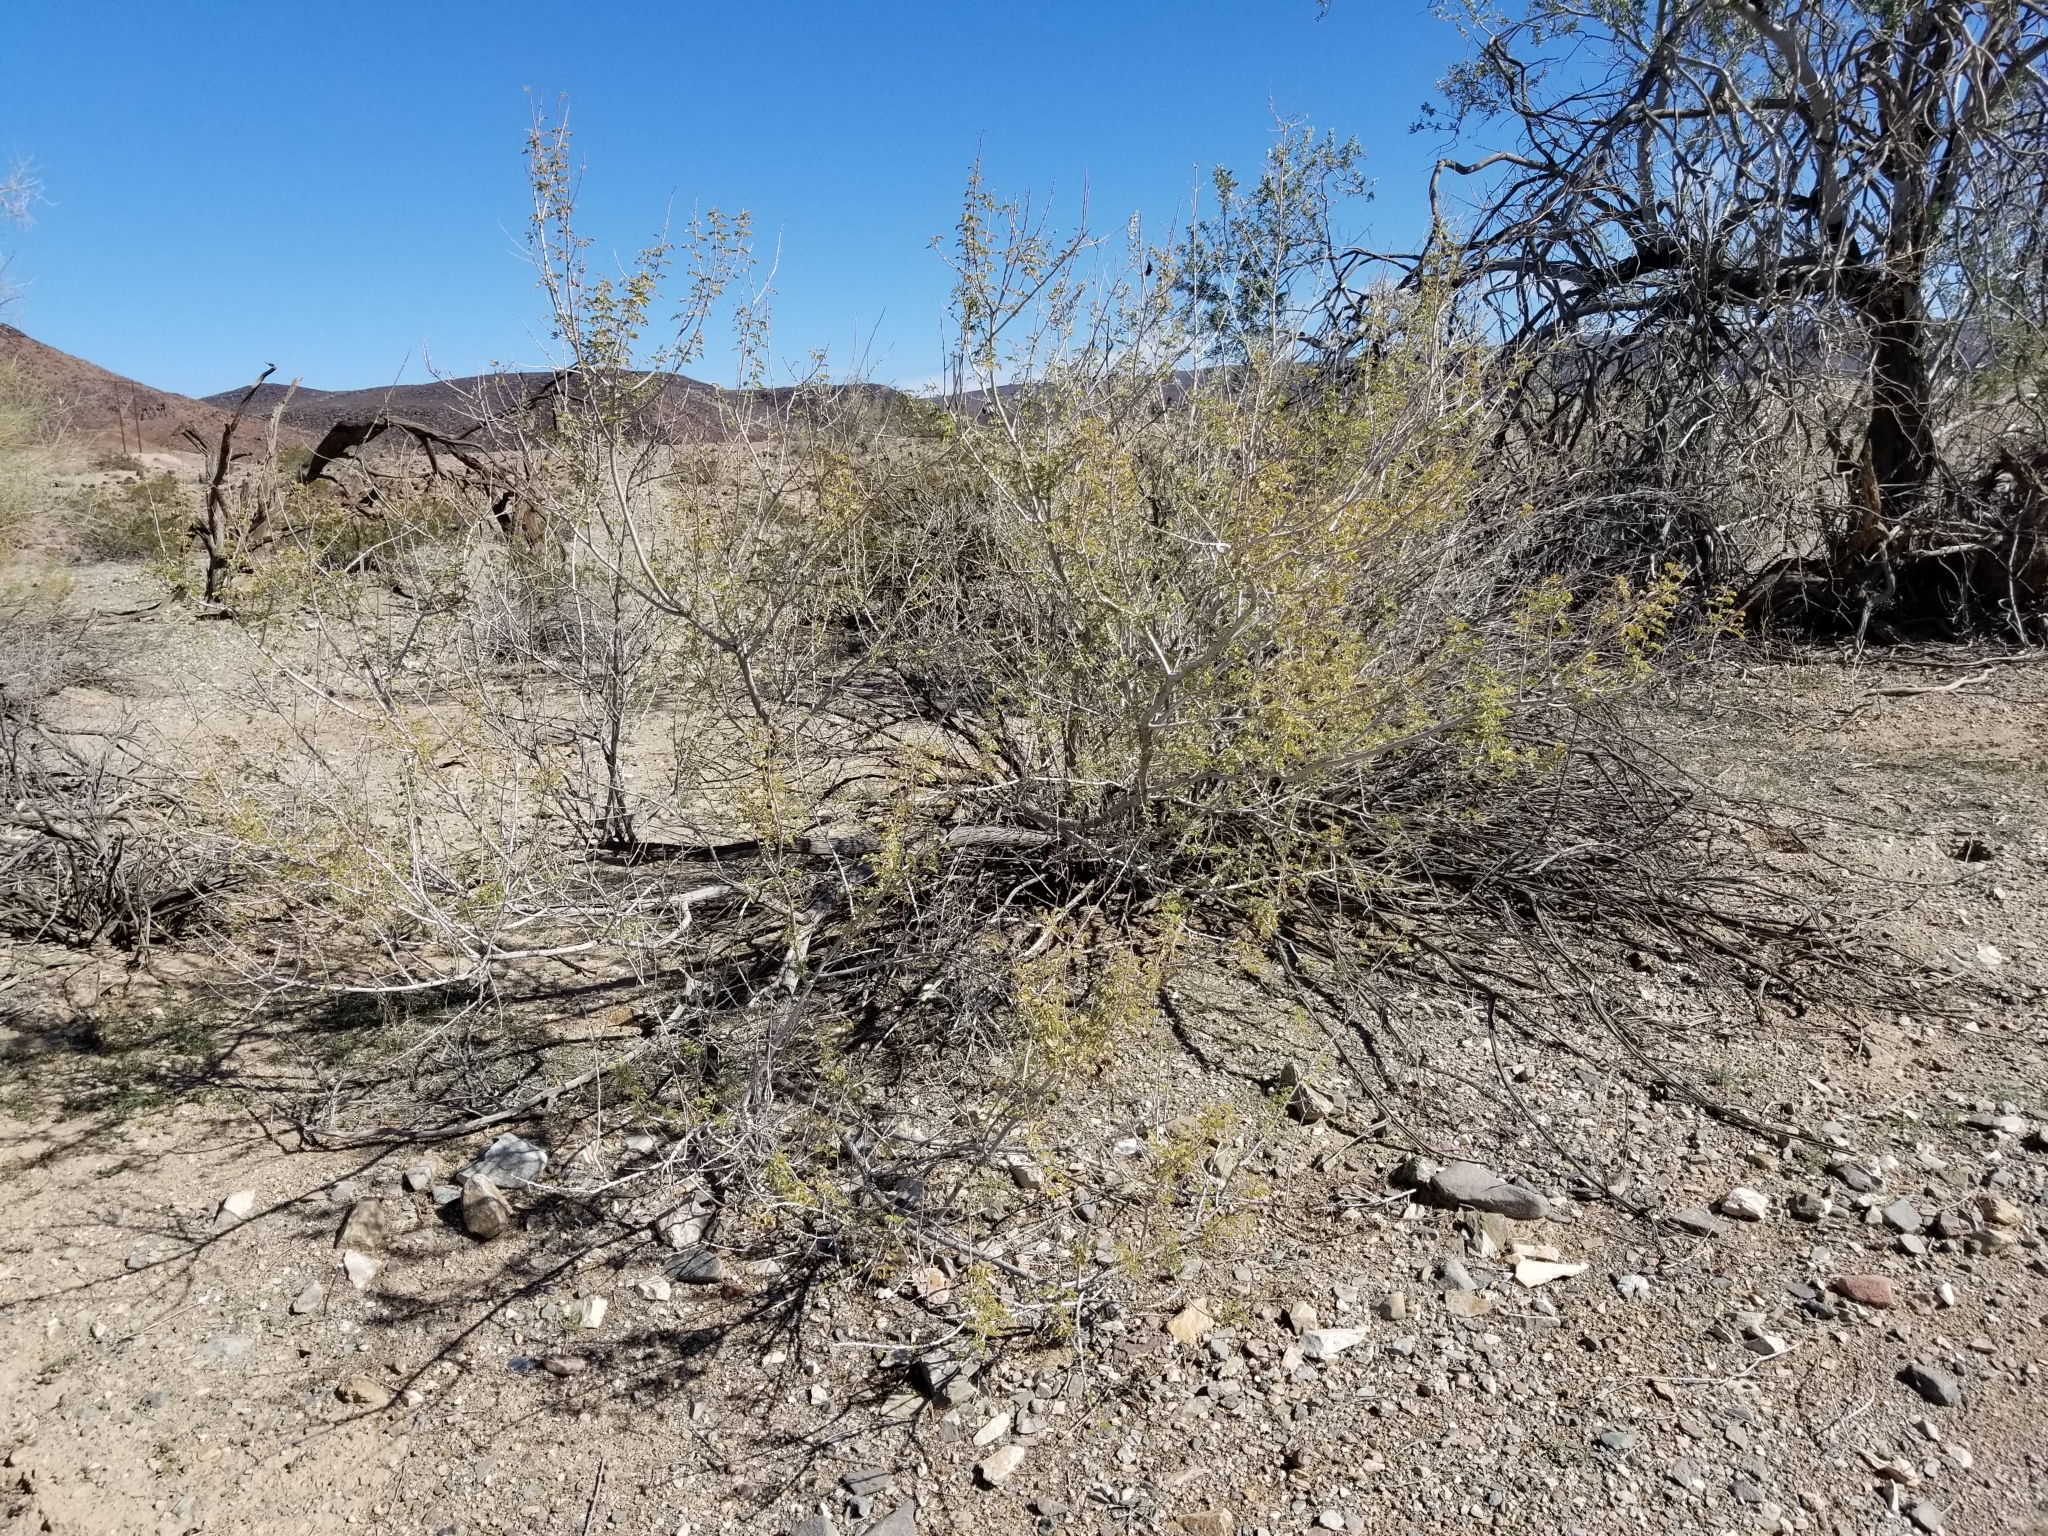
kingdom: Plantae
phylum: Tracheophyta
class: Magnoliopsida
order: Fabales
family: Fabaceae
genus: Senegalia
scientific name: Senegalia greggii
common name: Texas-mimosa
